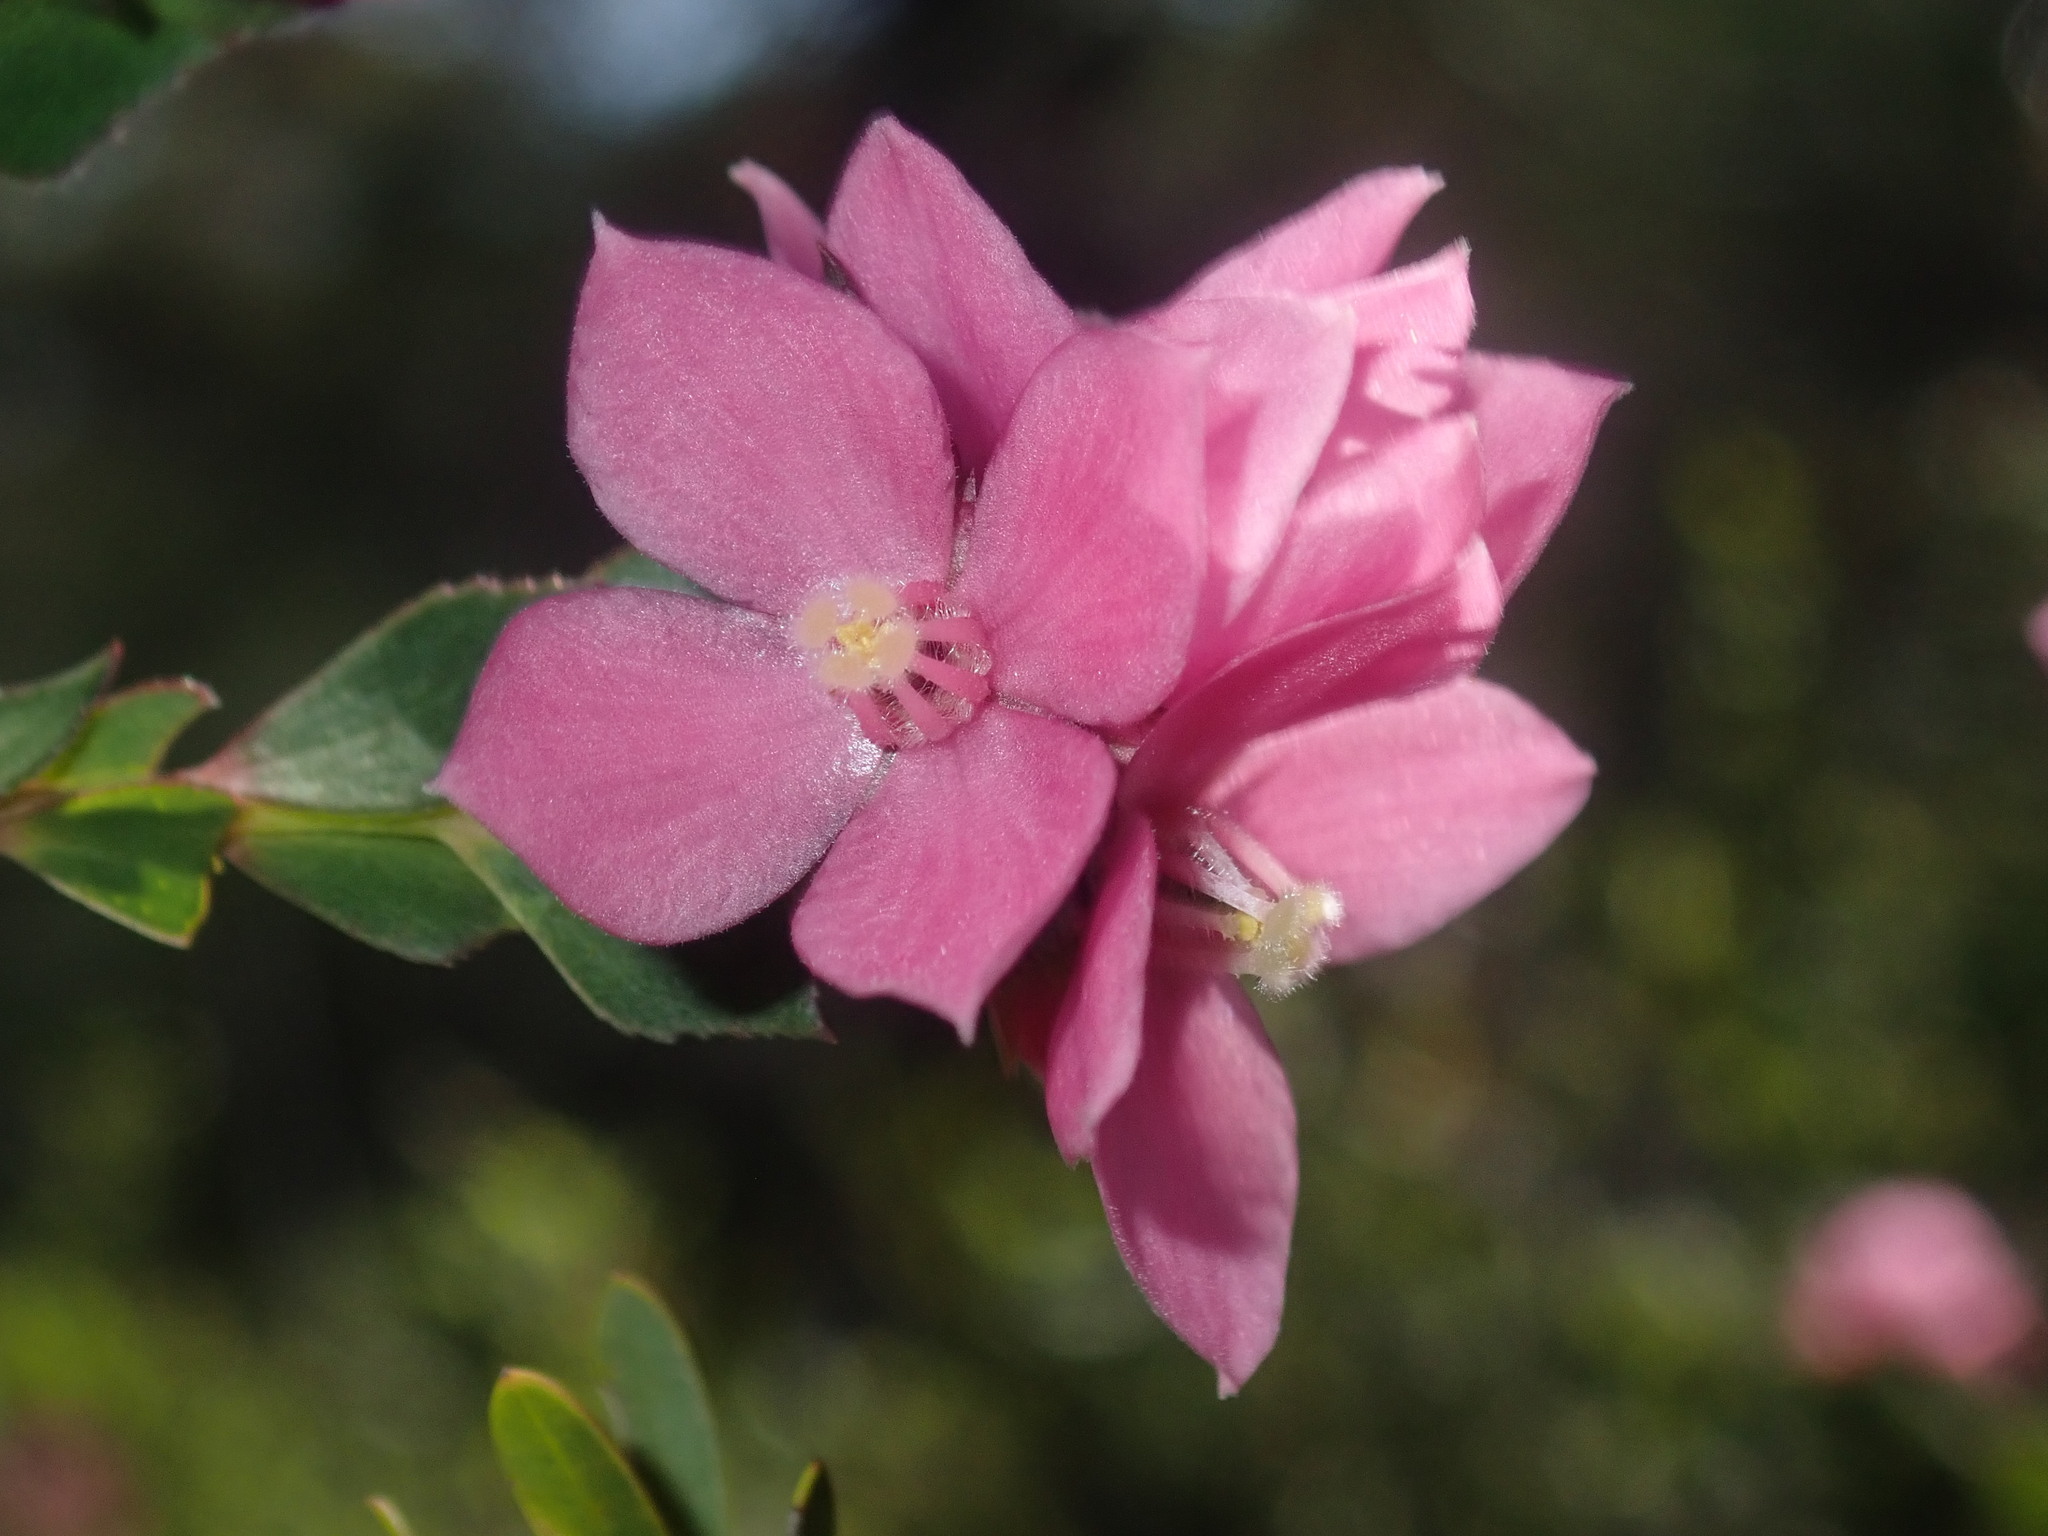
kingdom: Plantae
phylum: Tracheophyta
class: Magnoliopsida
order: Sapindales
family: Rutaceae
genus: Boronia
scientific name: Boronia serrulata
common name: Rose boronia
